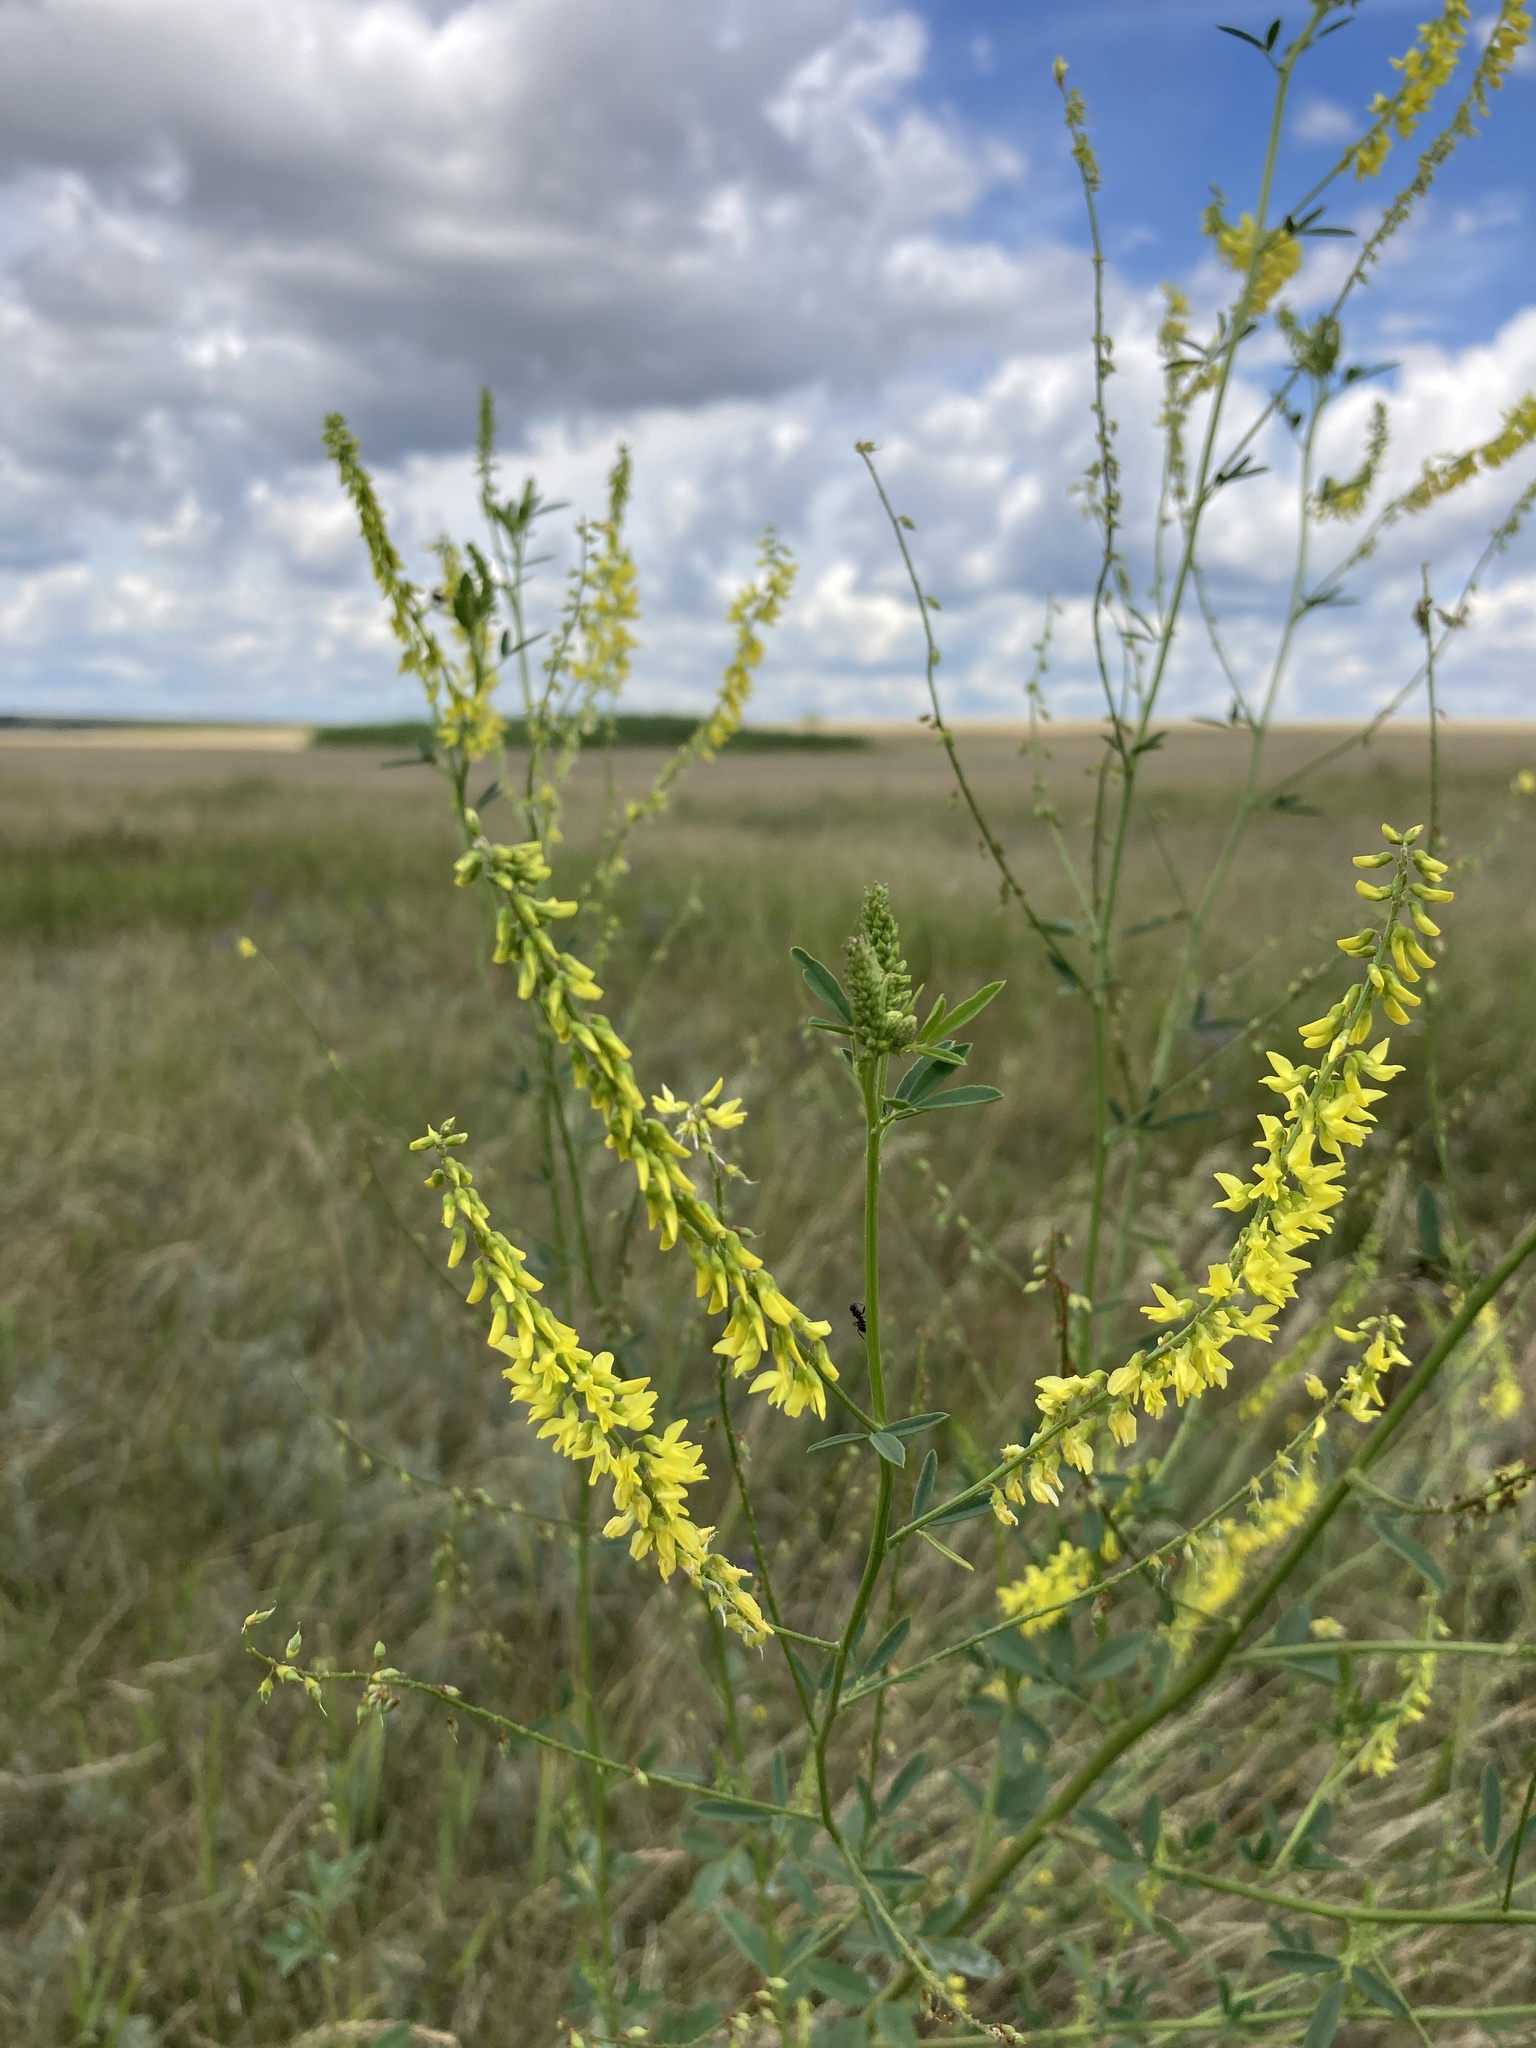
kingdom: Plantae
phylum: Tracheophyta
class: Magnoliopsida
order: Fabales
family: Fabaceae
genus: Melilotus
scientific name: Melilotus officinalis
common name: Sweetclover
